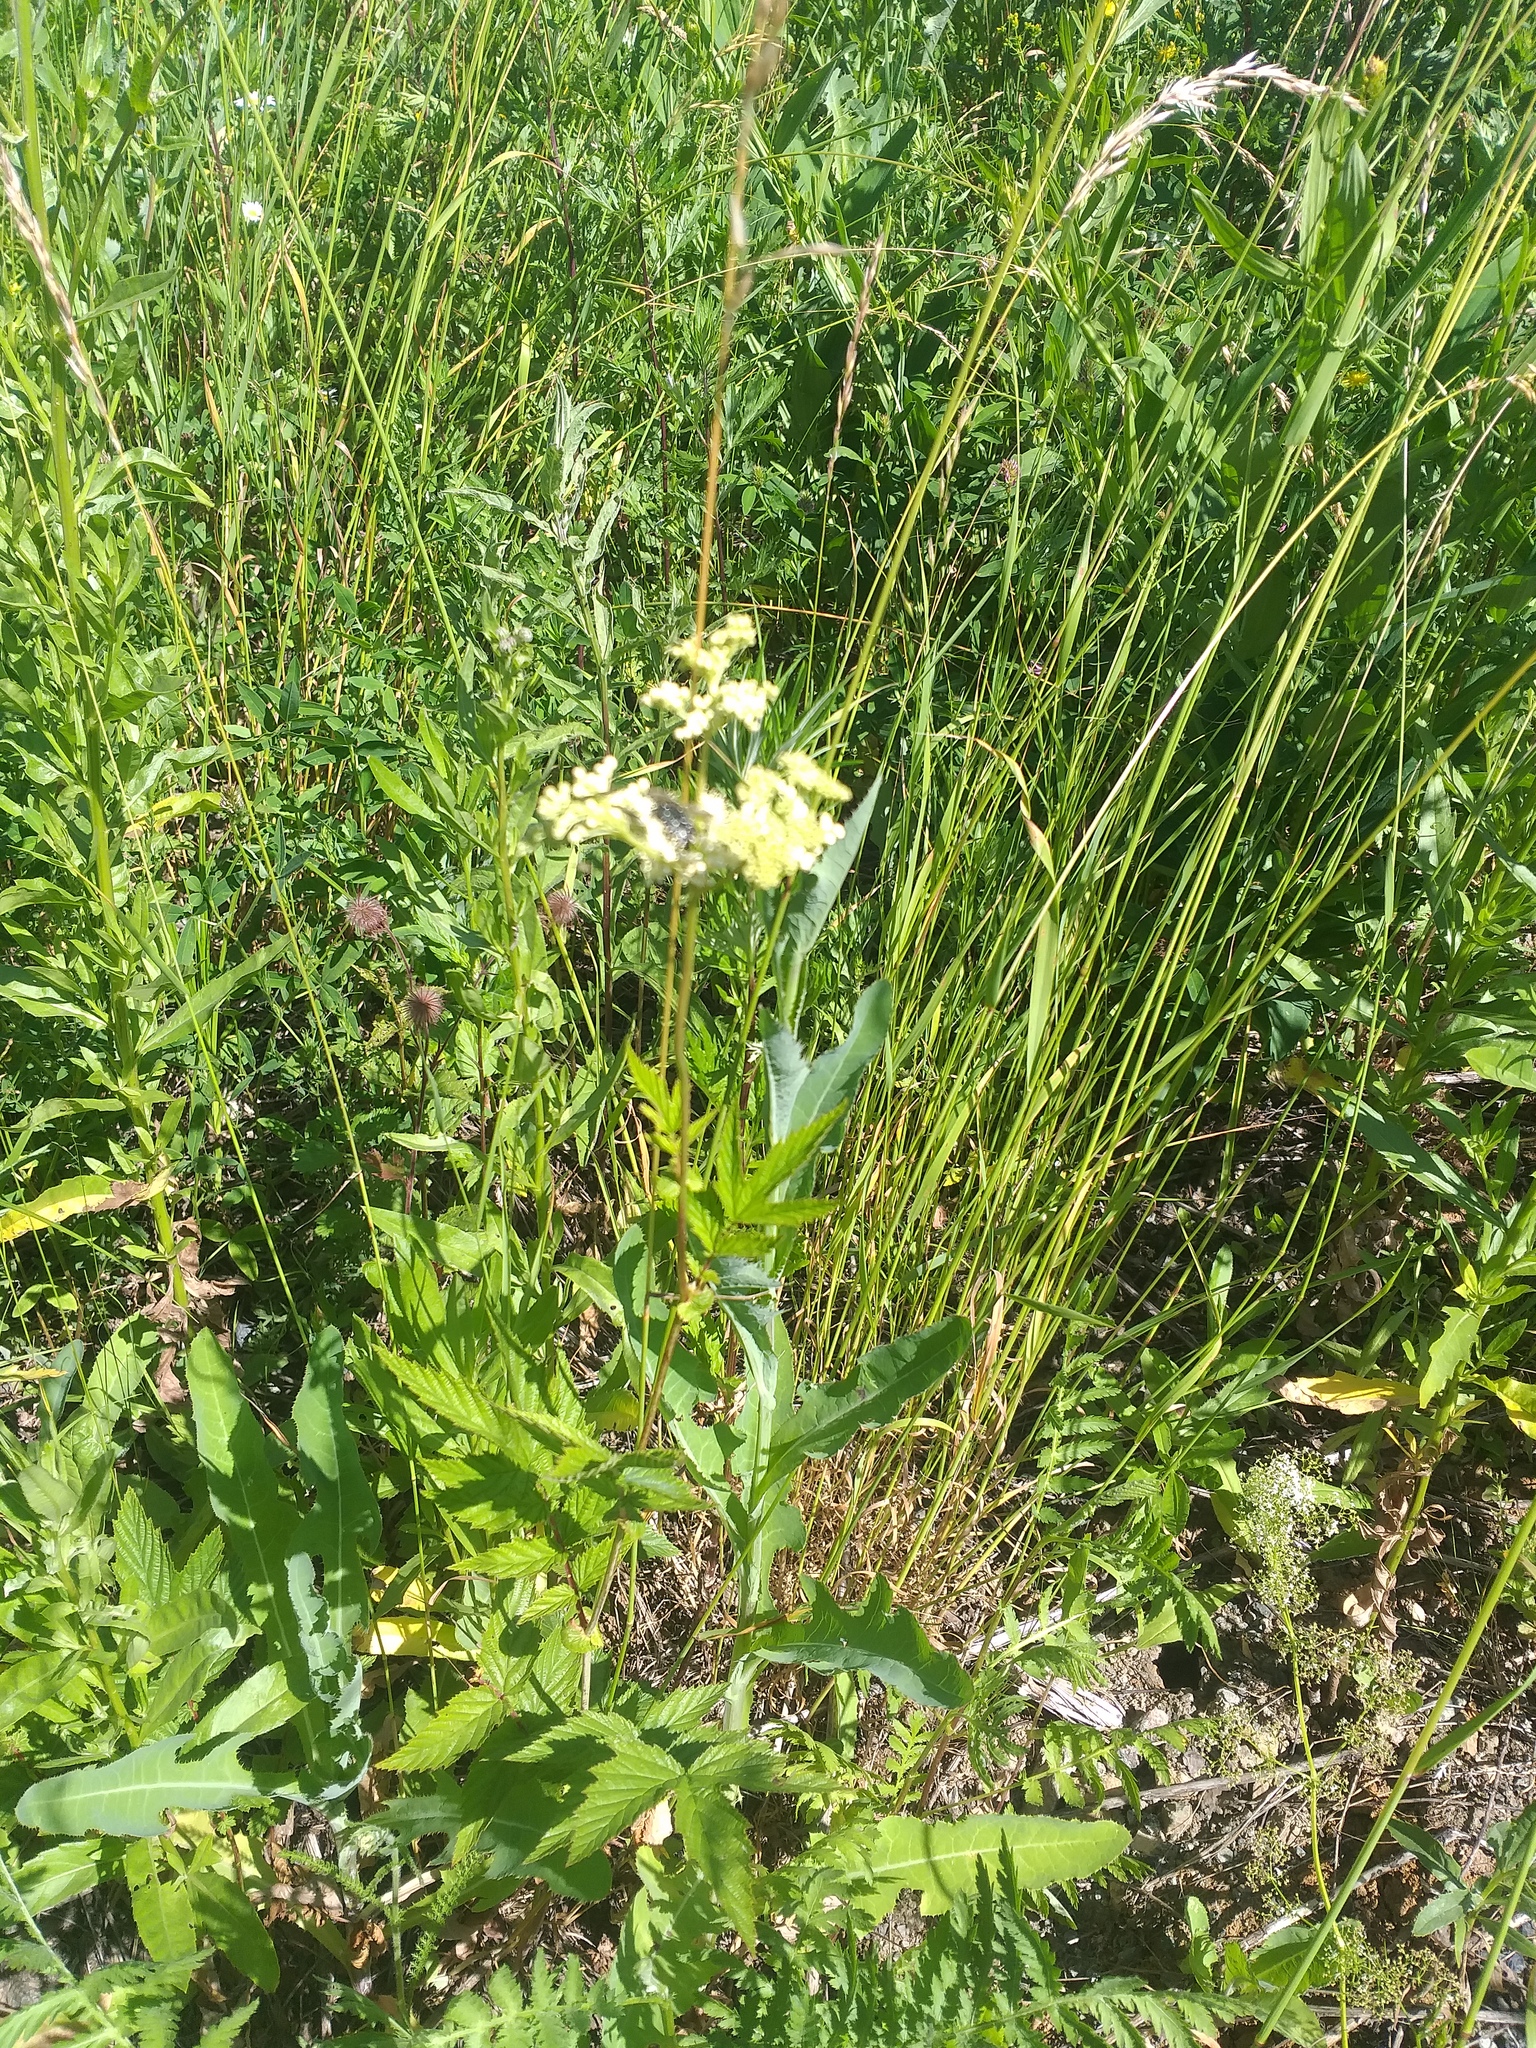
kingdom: Plantae
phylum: Tracheophyta
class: Magnoliopsida
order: Rosales
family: Rosaceae
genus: Filipendula
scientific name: Filipendula ulmaria
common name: Meadowsweet
